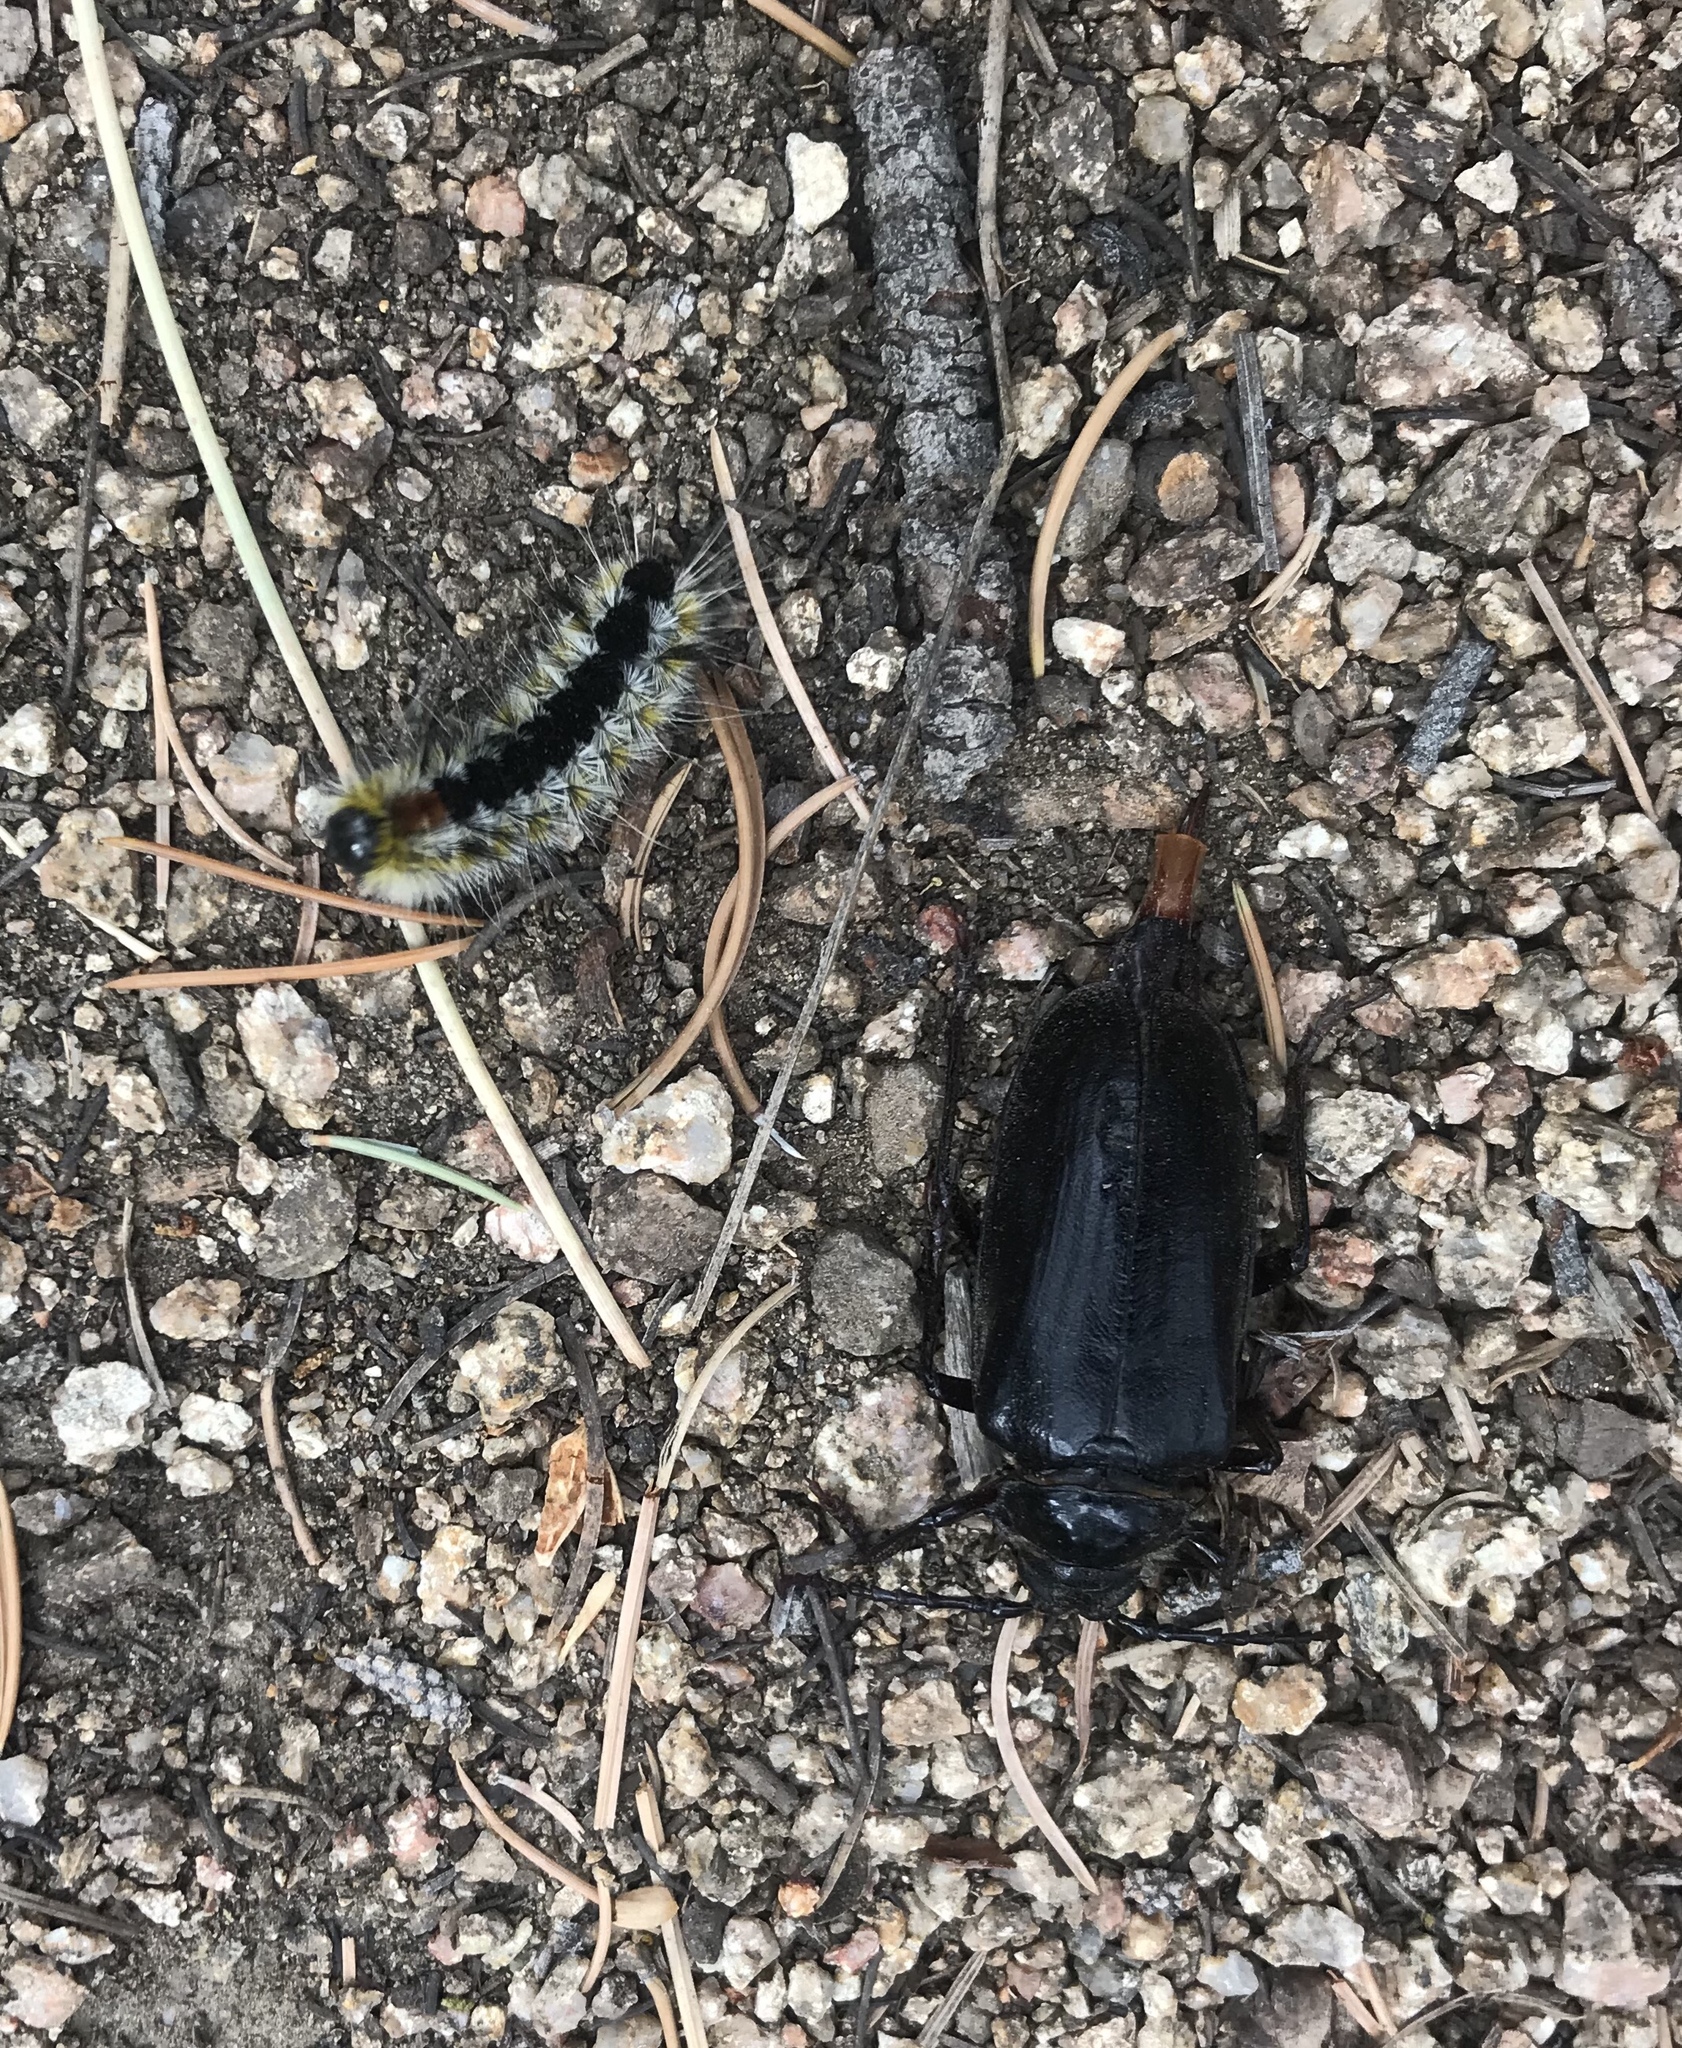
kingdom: Animalia
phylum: Arthropoda
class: Insecta
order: Coleoptera
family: Cerambycidae
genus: Prionus
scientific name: Prionus californicus
